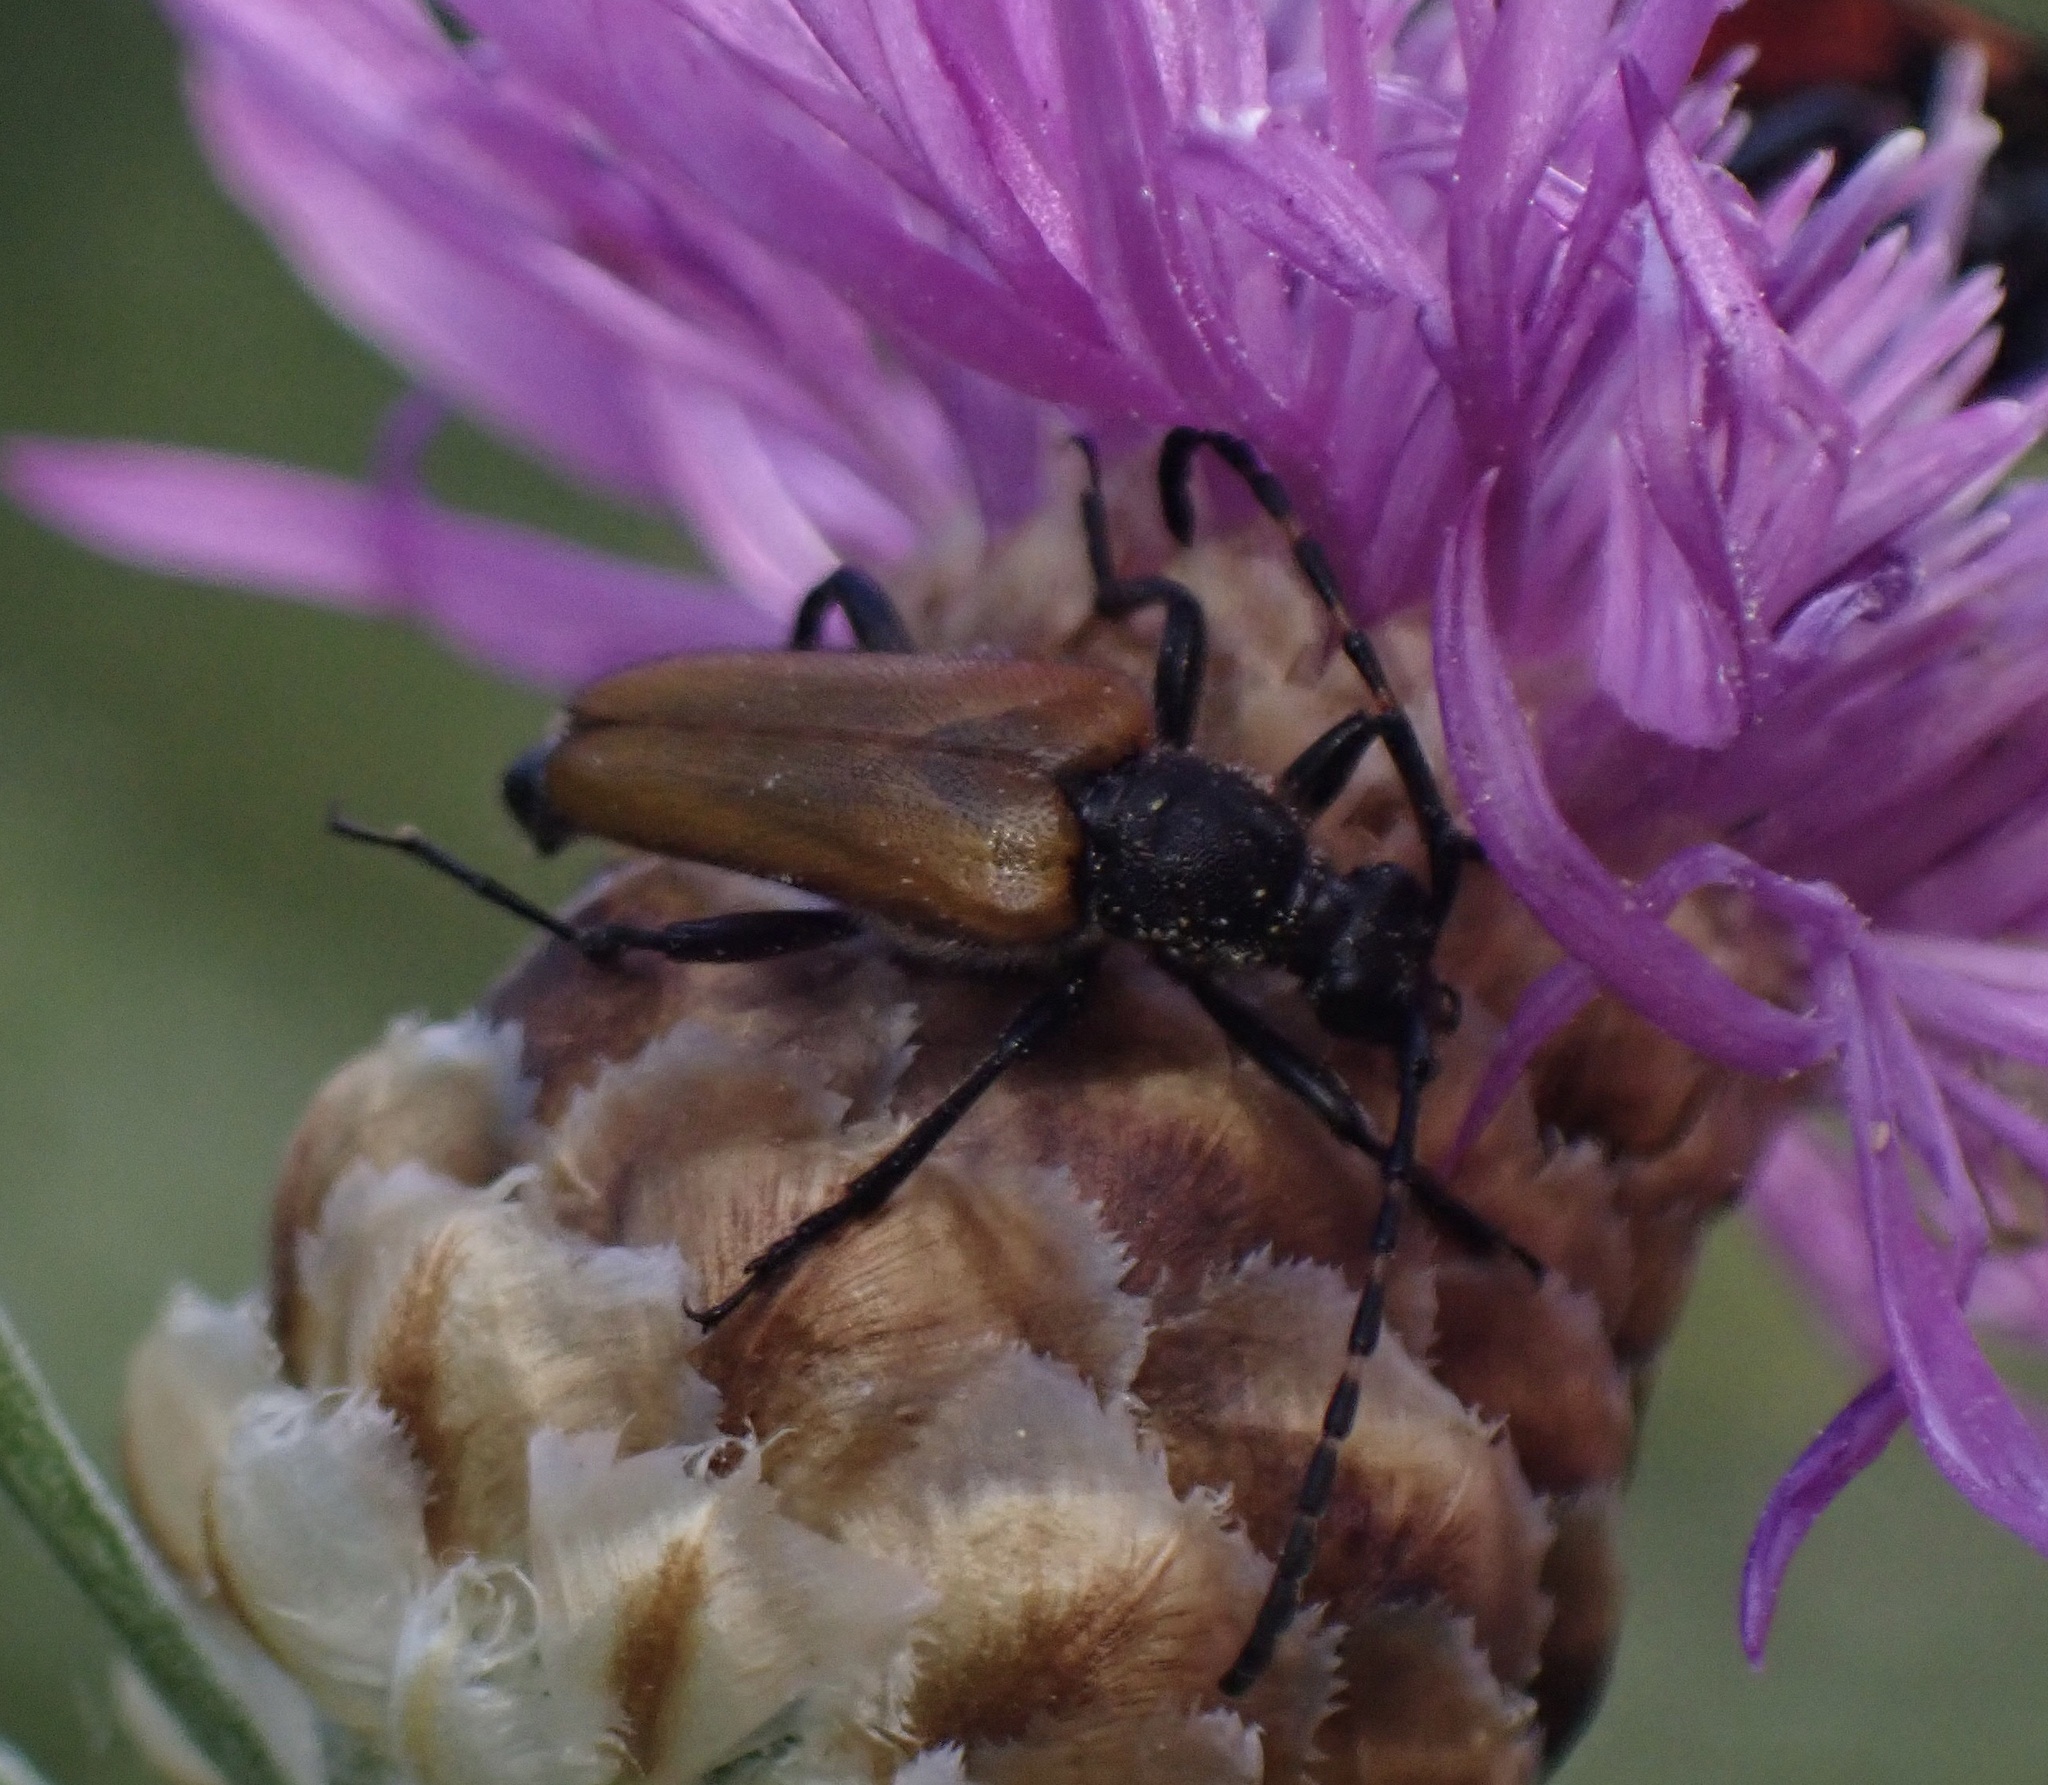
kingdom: Animalia
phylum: Arthropoda
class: Insecta
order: Coleoptera
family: Cerambycidae
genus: Paracorymbia
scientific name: Paracorymbia hybrida
